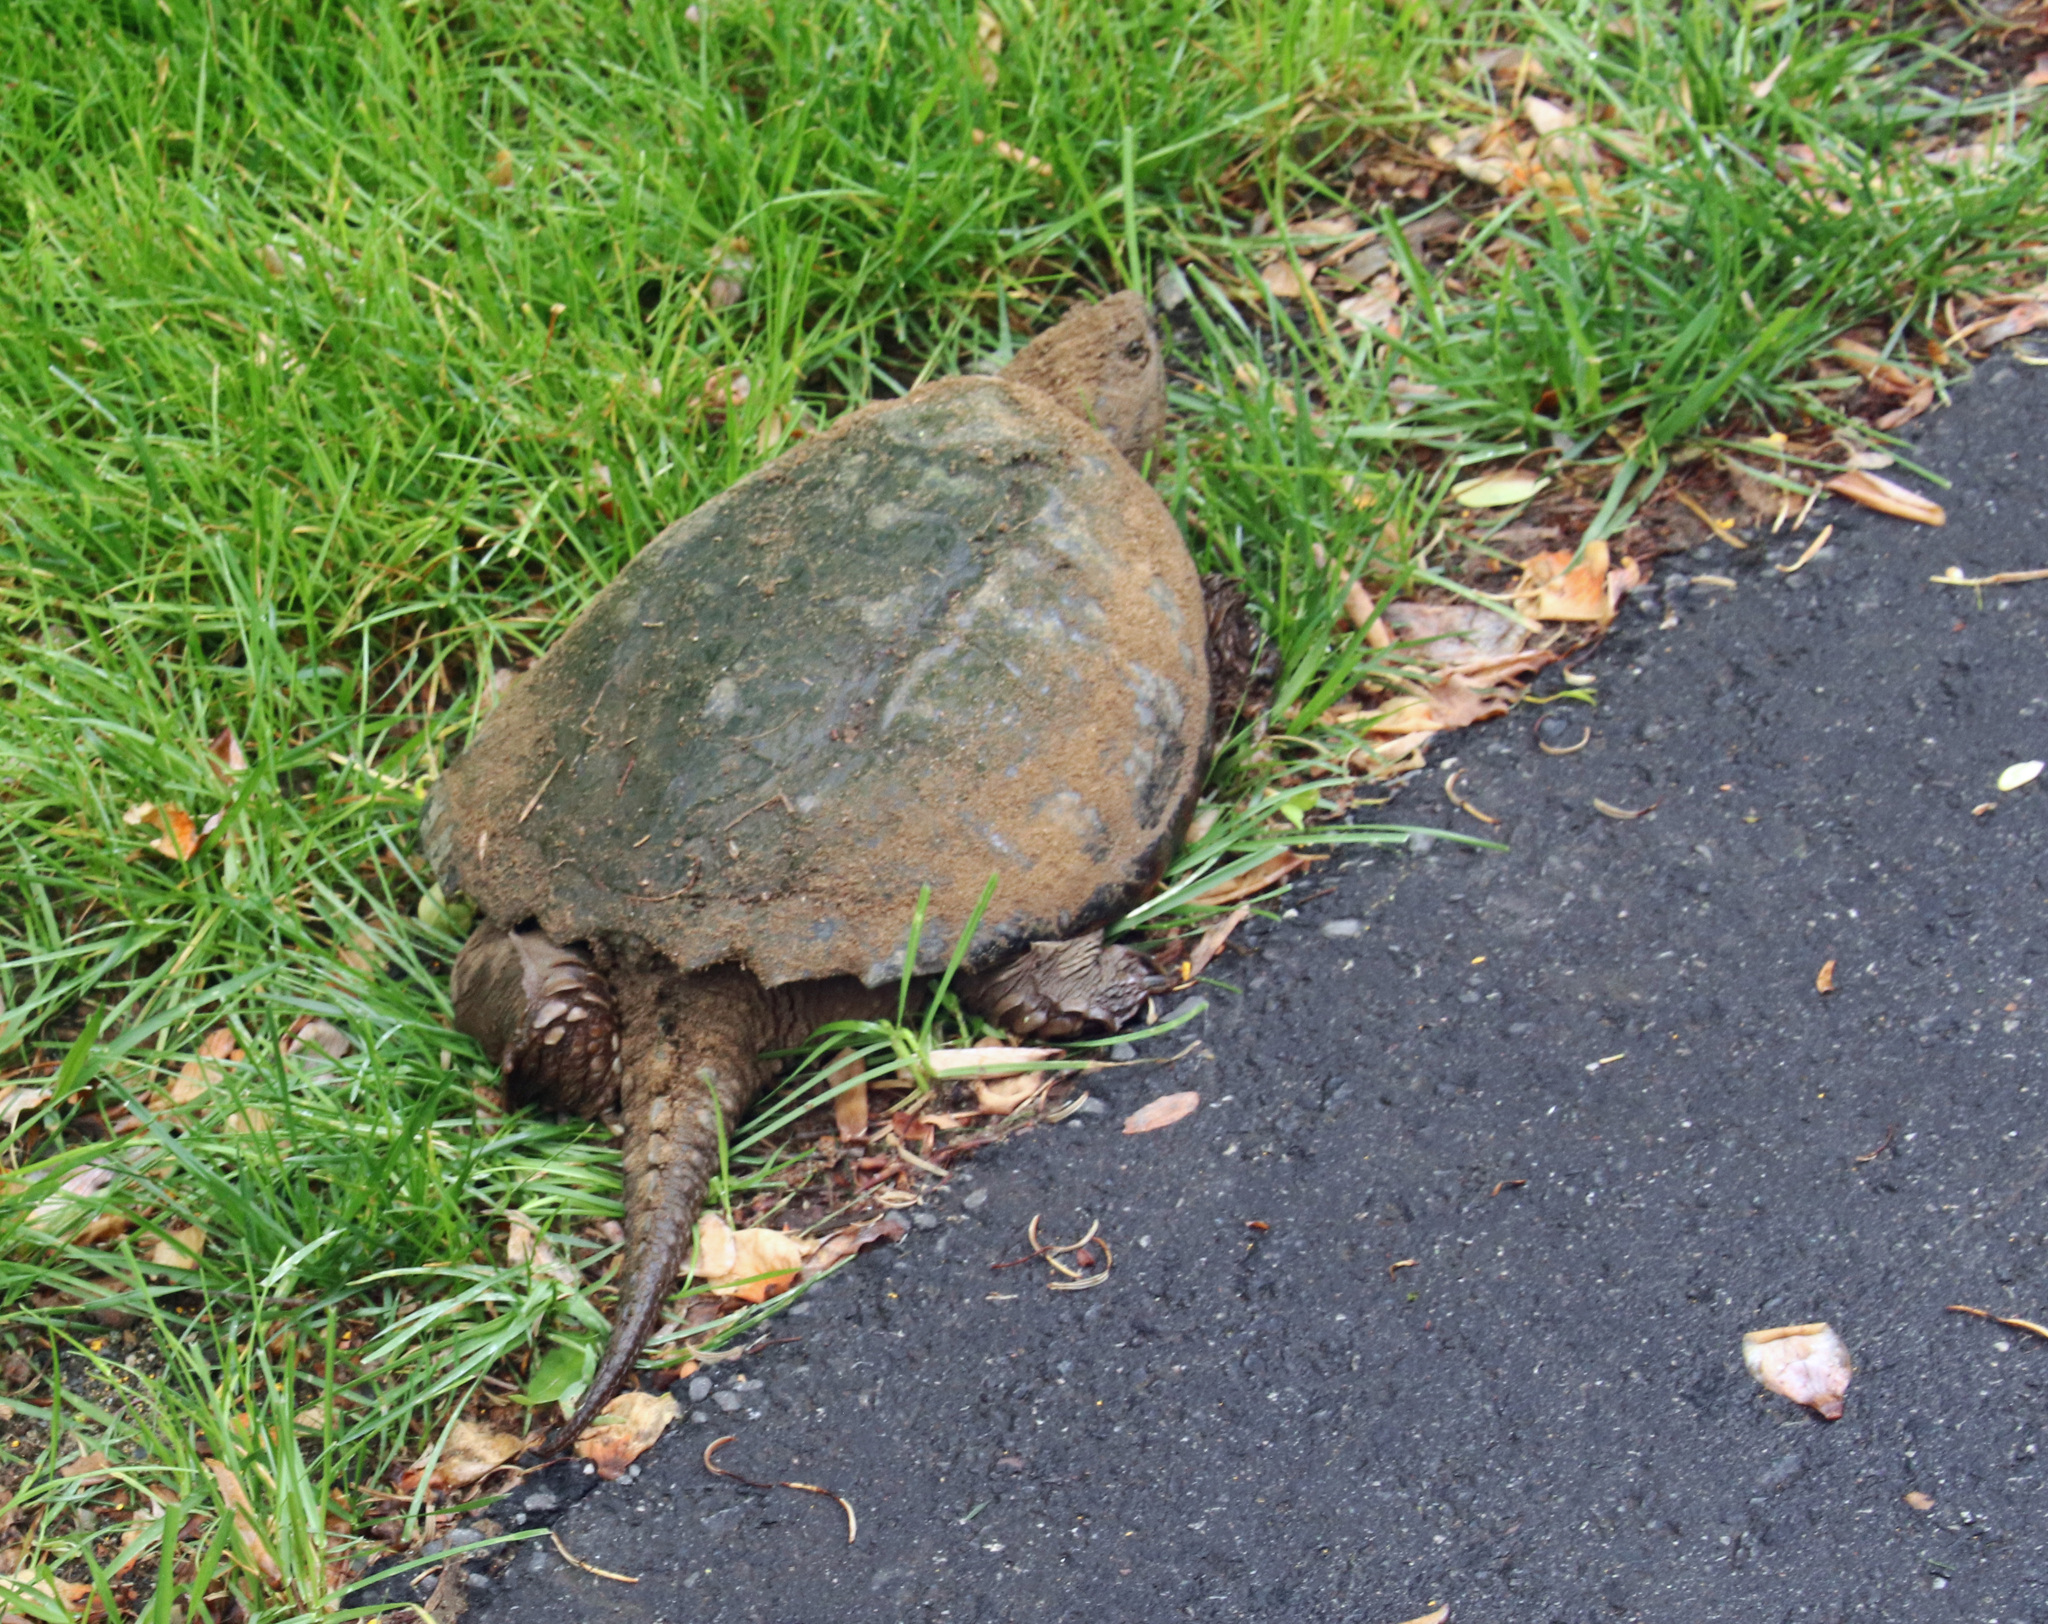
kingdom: Animalia
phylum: Chordata
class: Testudines
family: Chelydridae
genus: Chelydra
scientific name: Chelydra serpentina
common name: Common snapping turtle
